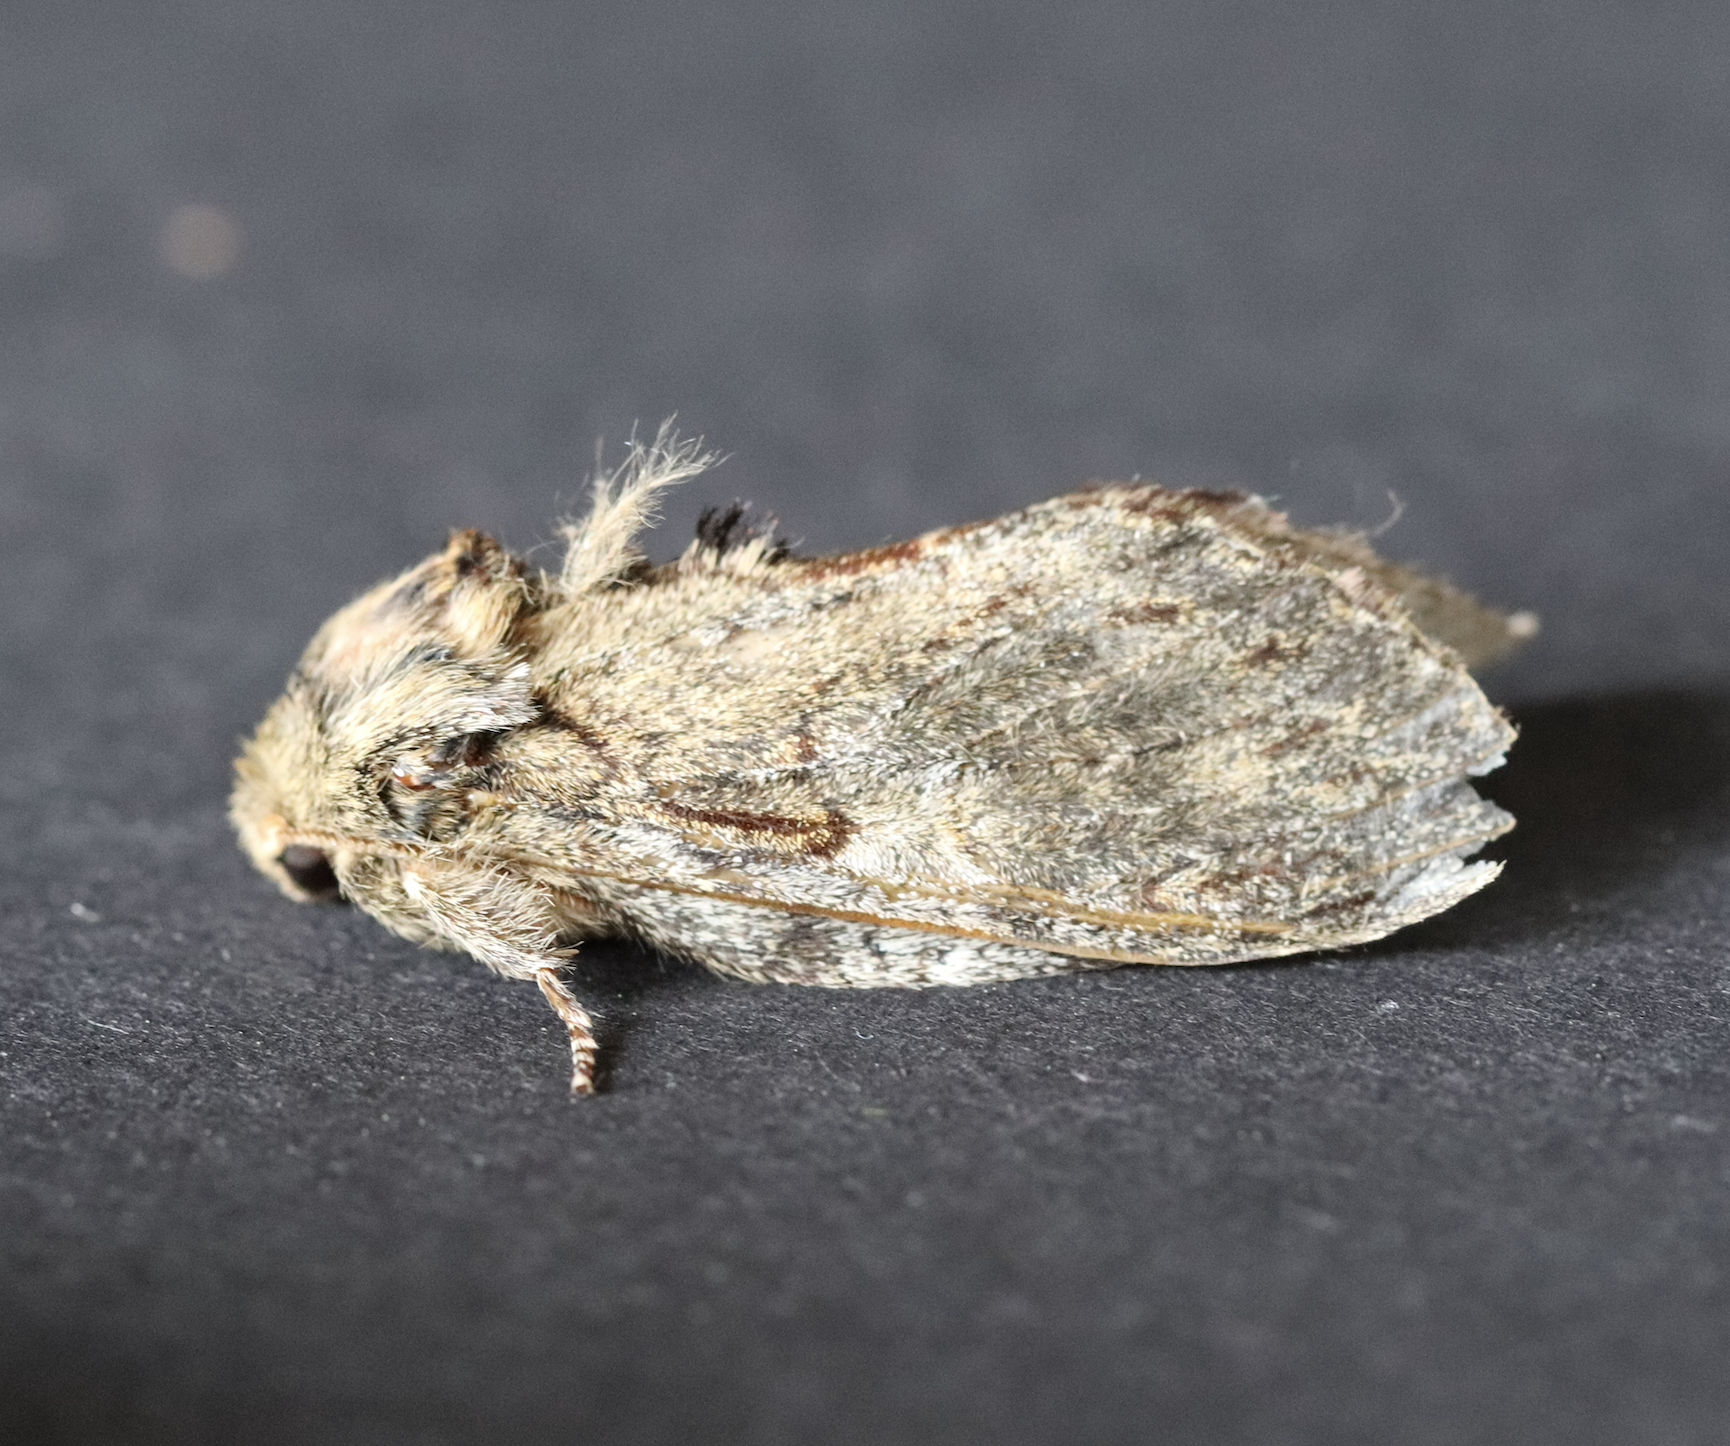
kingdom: Animalia
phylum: Arthropoda
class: Insecta
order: Lepidoptera
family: Notodontidae
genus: Peridea
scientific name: Peridea anceps
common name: Great prominent
